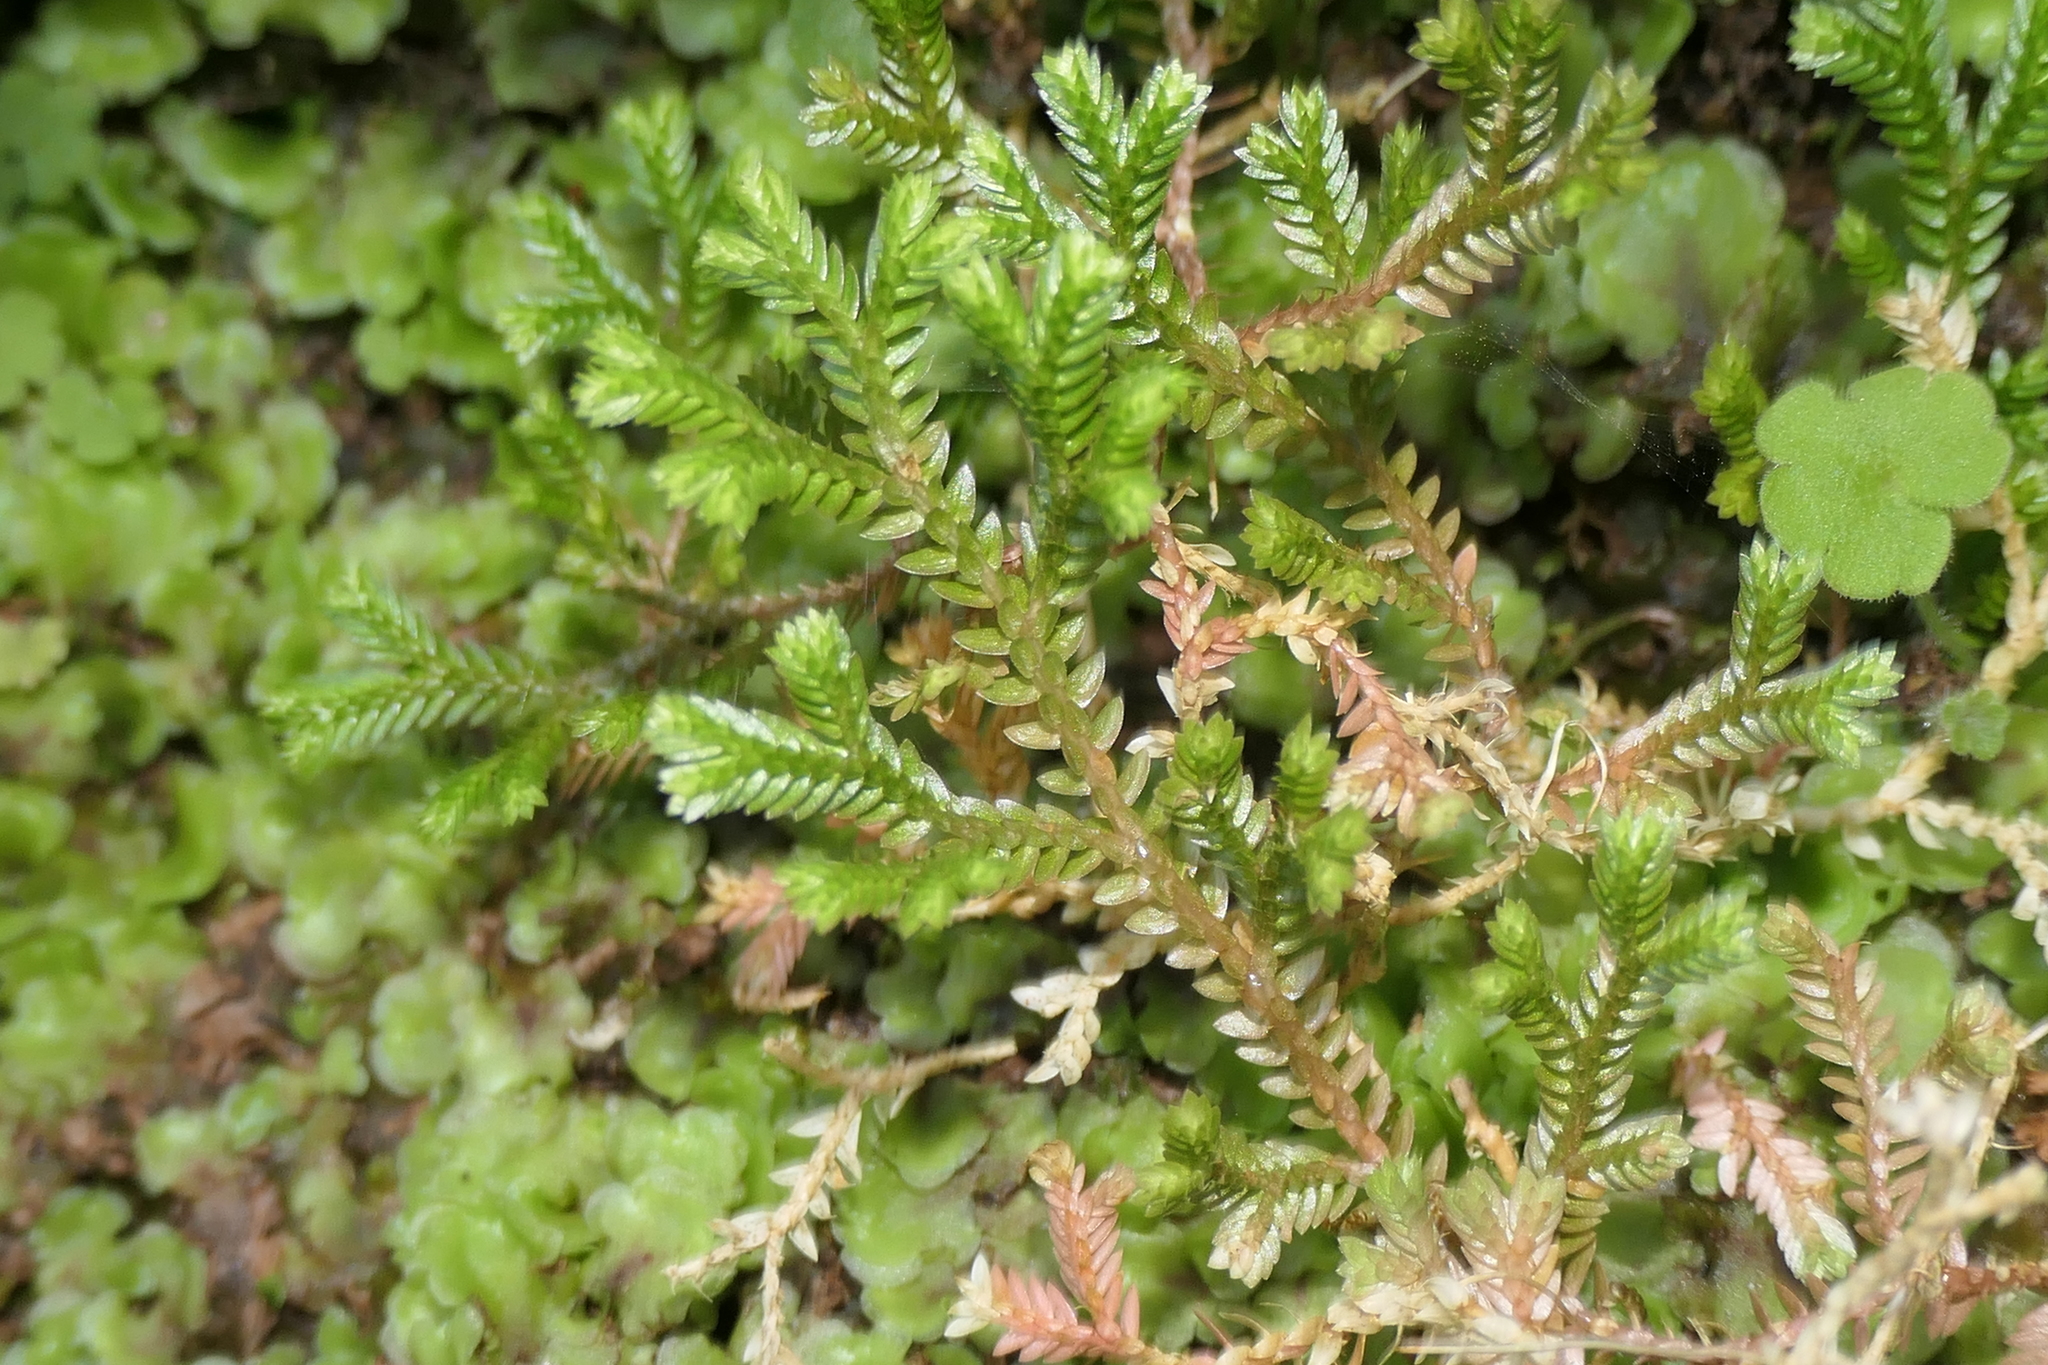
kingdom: Plantae
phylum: Tracheophyta
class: Lycopodiopsida
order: Selaginellales
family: Selaginellaceae
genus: Selaginella
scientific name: Selaginella kraussiana
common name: Krauss' spikemoss
